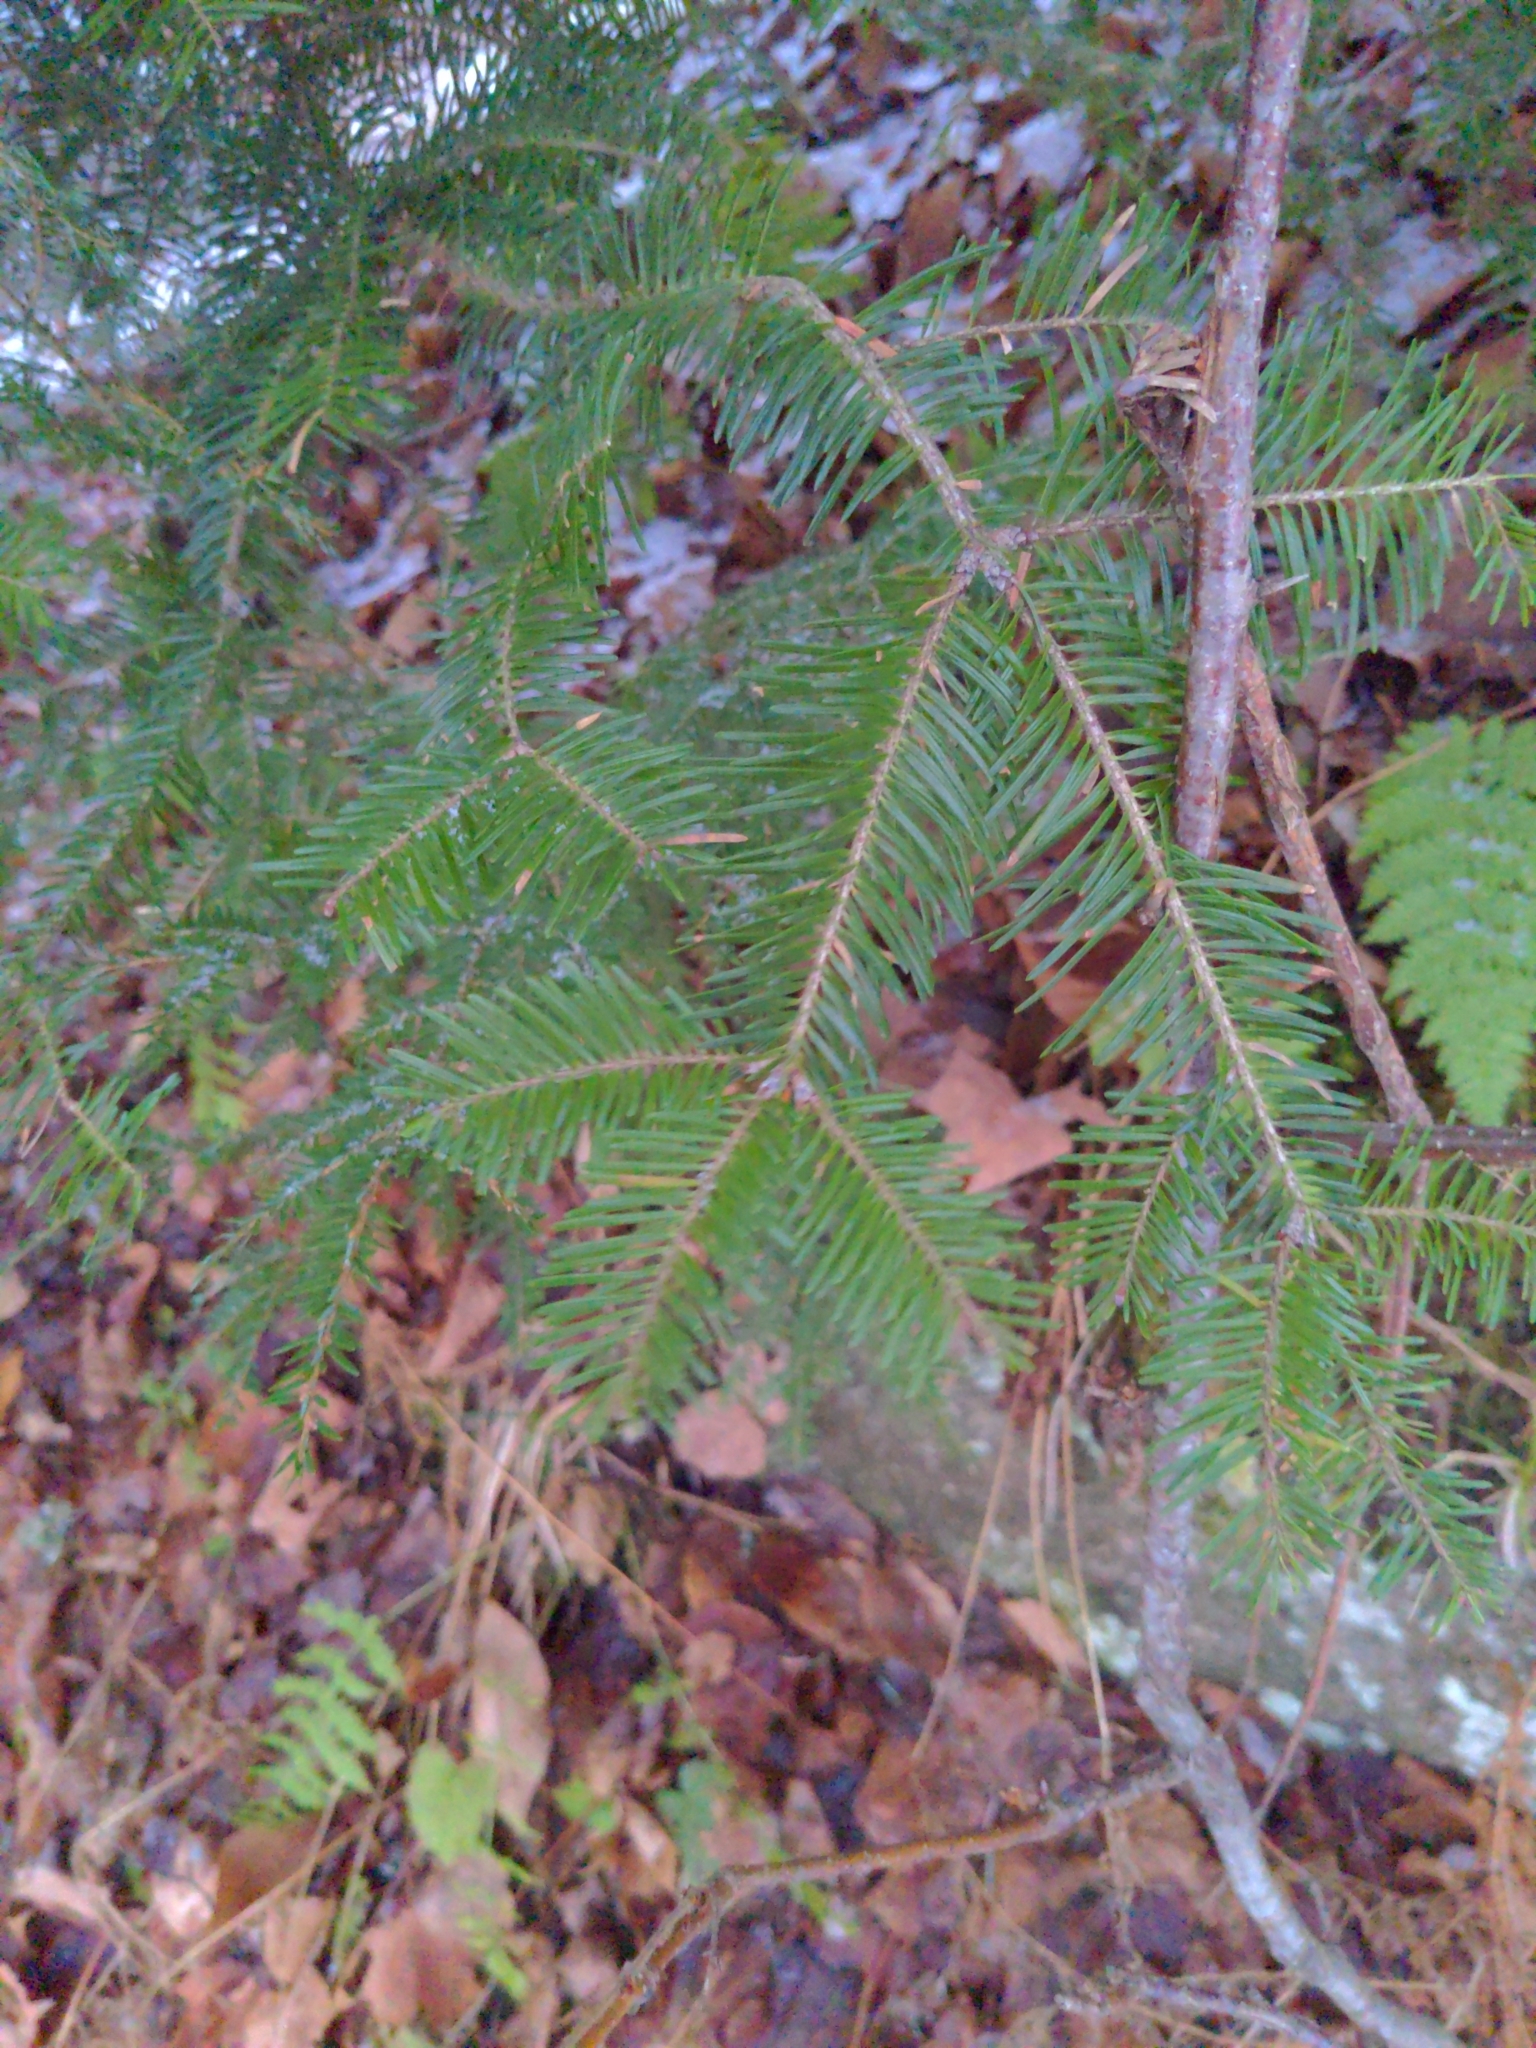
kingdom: Plantae
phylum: Tracheophyta
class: Pinopsida
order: Pinales
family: Pinaceae
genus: Abies
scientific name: Abies balsamea
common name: Balsam fir
